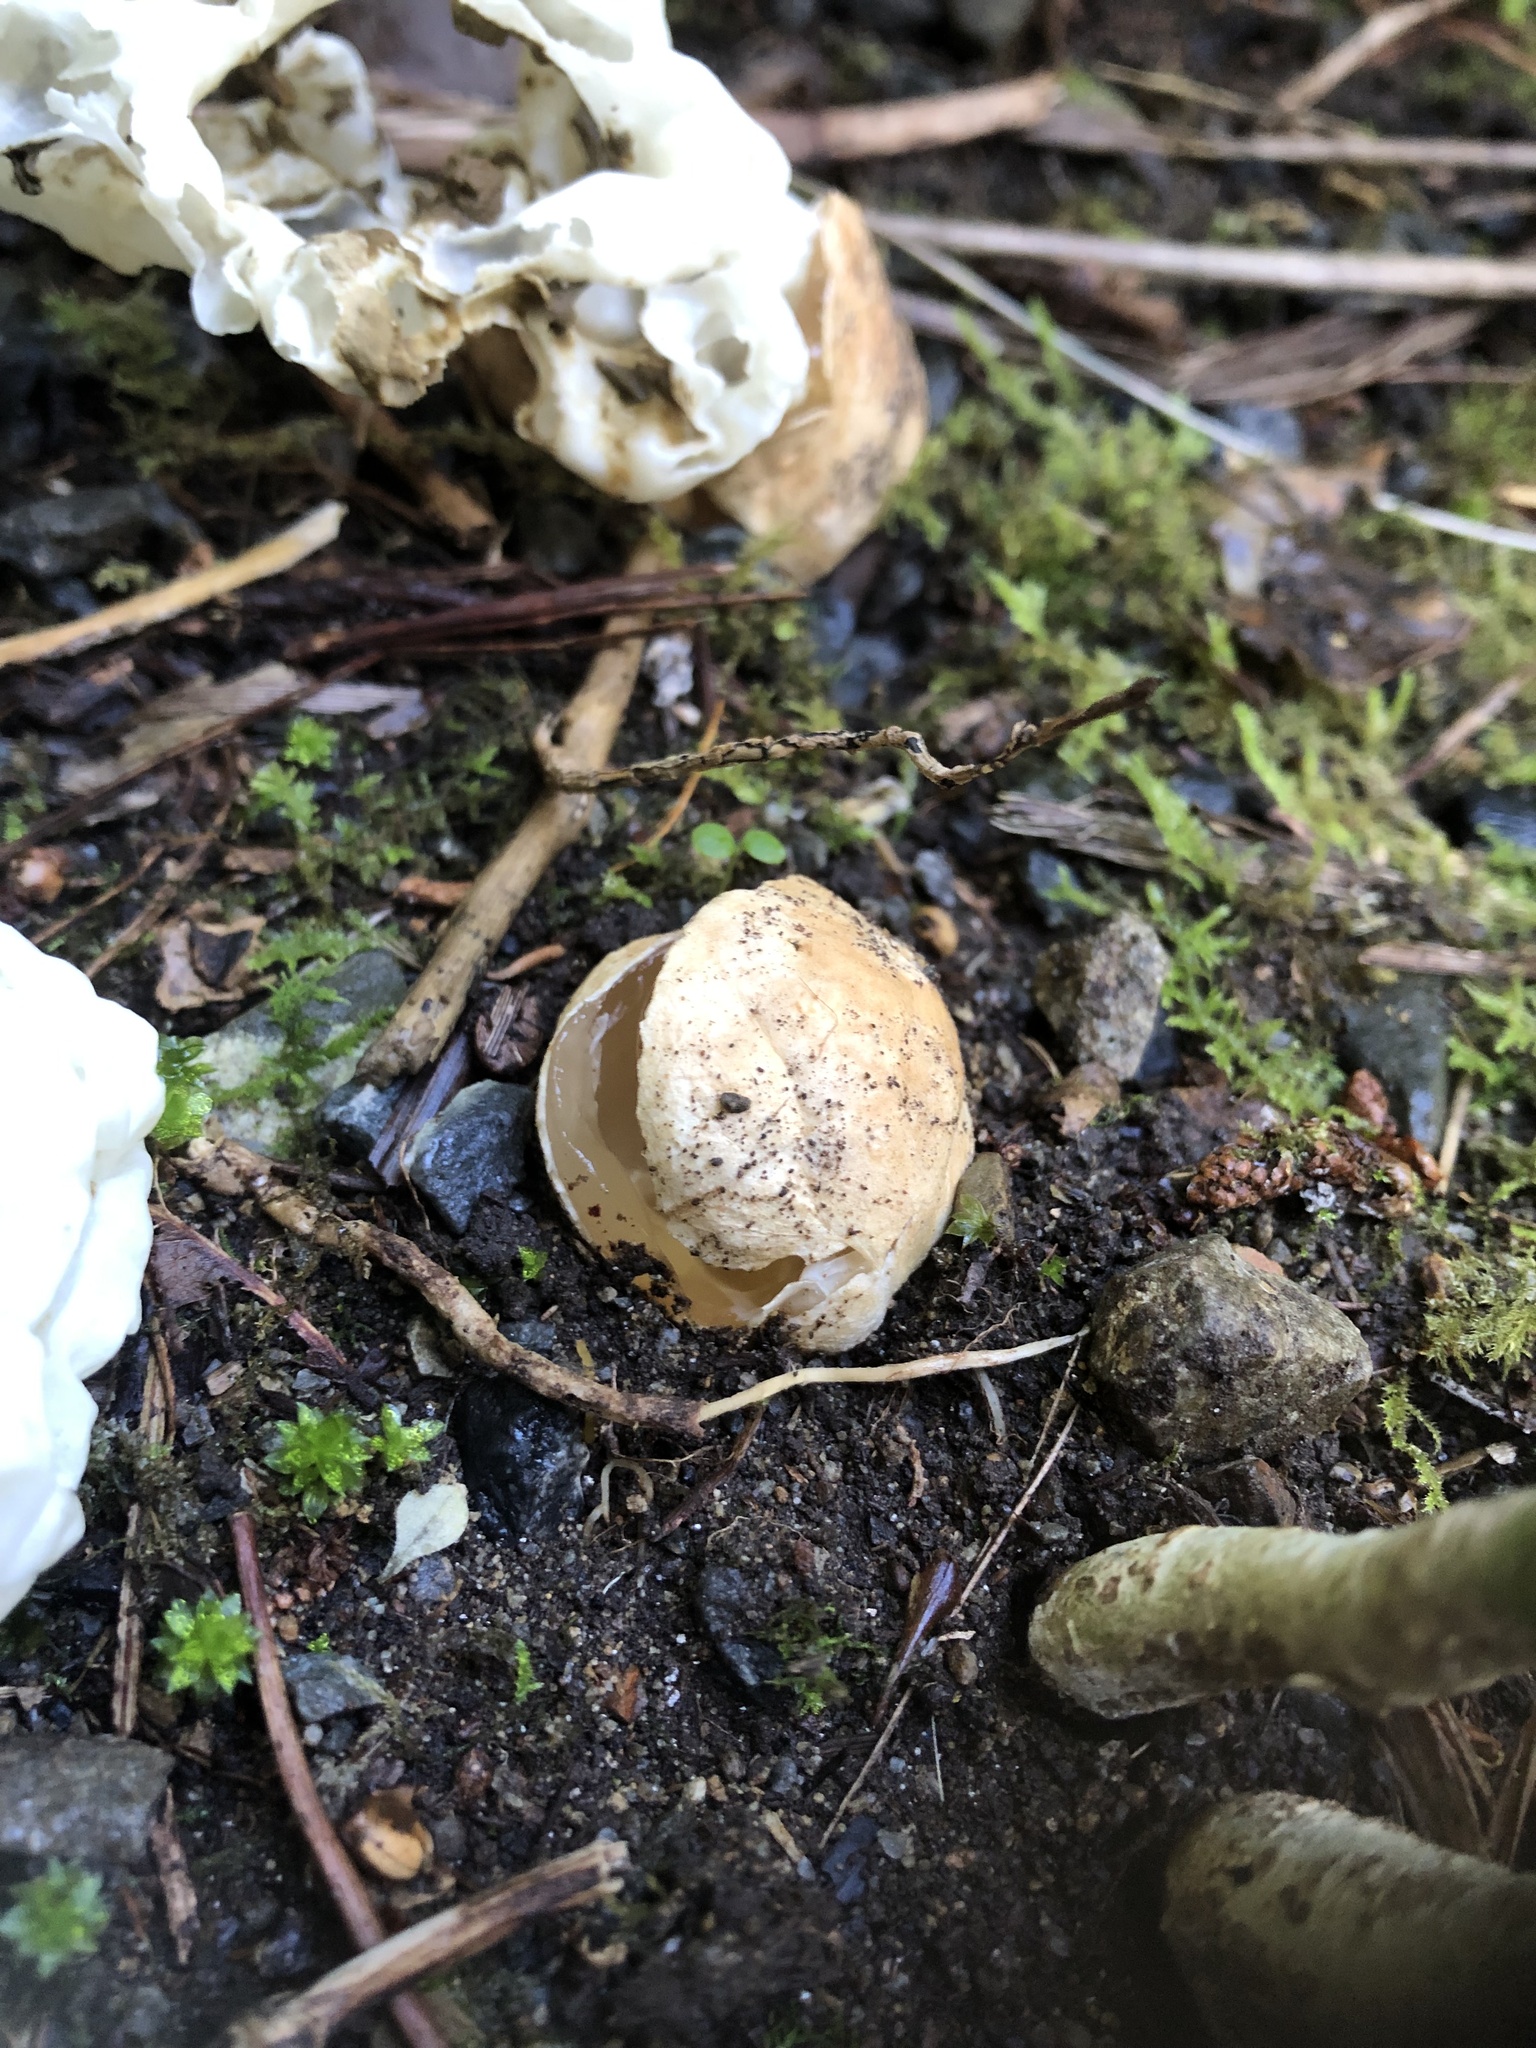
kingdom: Fungi
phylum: Basidiomycota
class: Agaricomycetes
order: Phallales
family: Phallaceae
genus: Ileodictyon
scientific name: Ileodictyon cibarium
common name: Basket fungus
